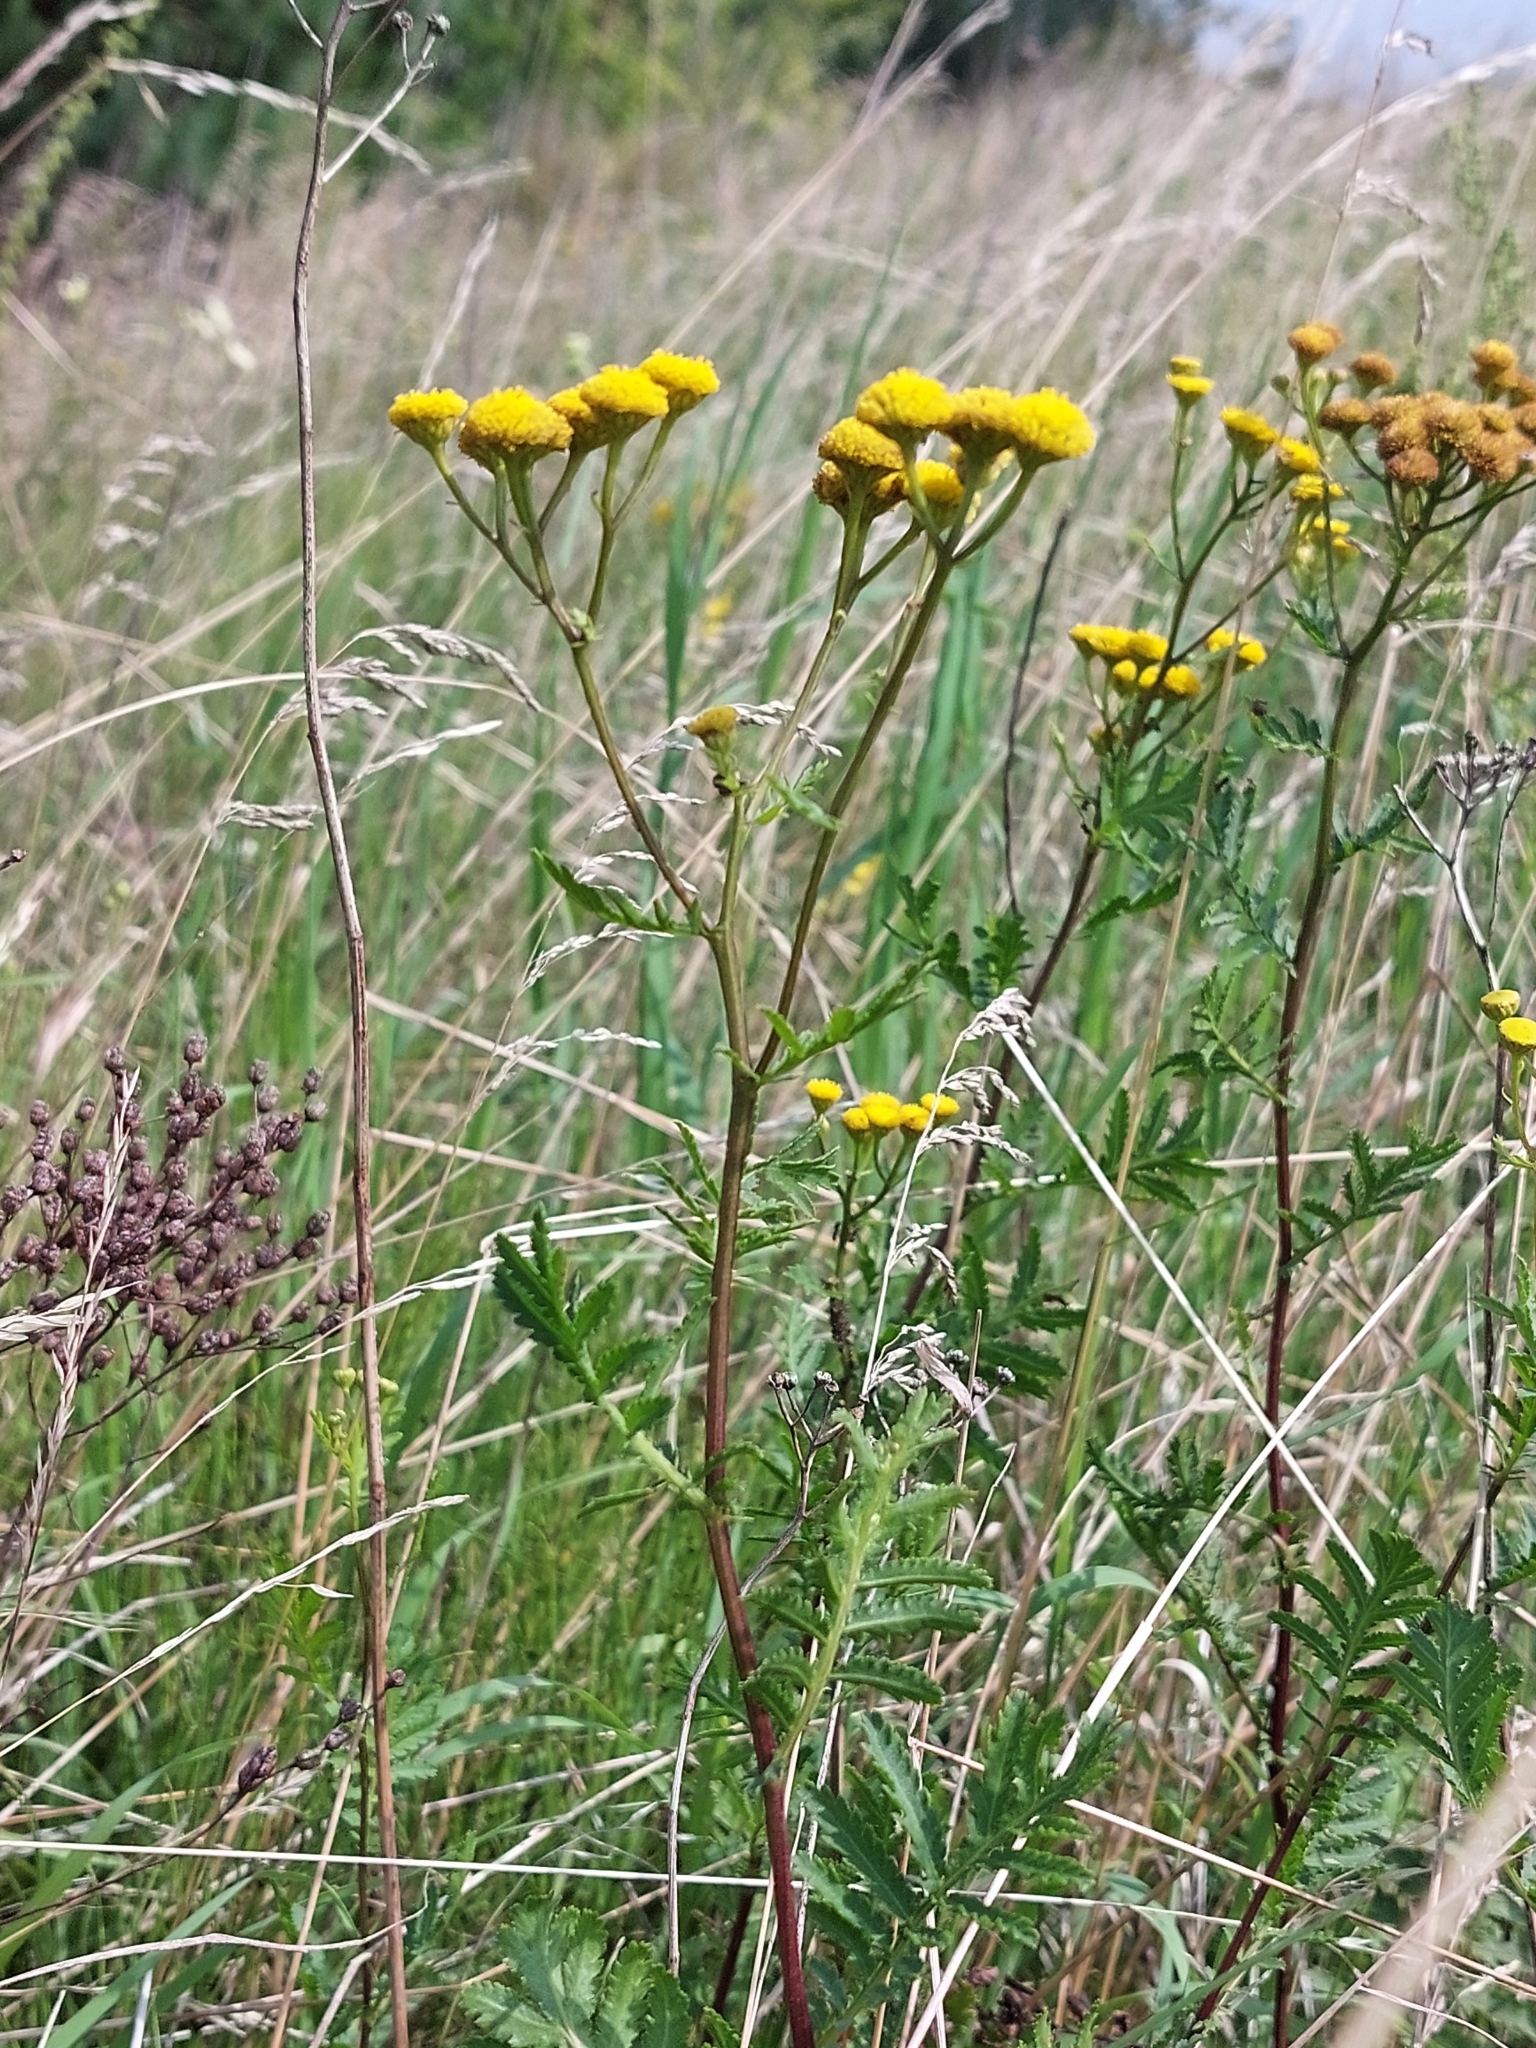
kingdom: Plantae
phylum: Tracheophyta
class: Magnoliopsida
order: Asterales
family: Asteraceae
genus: Tanacetum
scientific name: Tanacetum vulgare
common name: Common tansy
